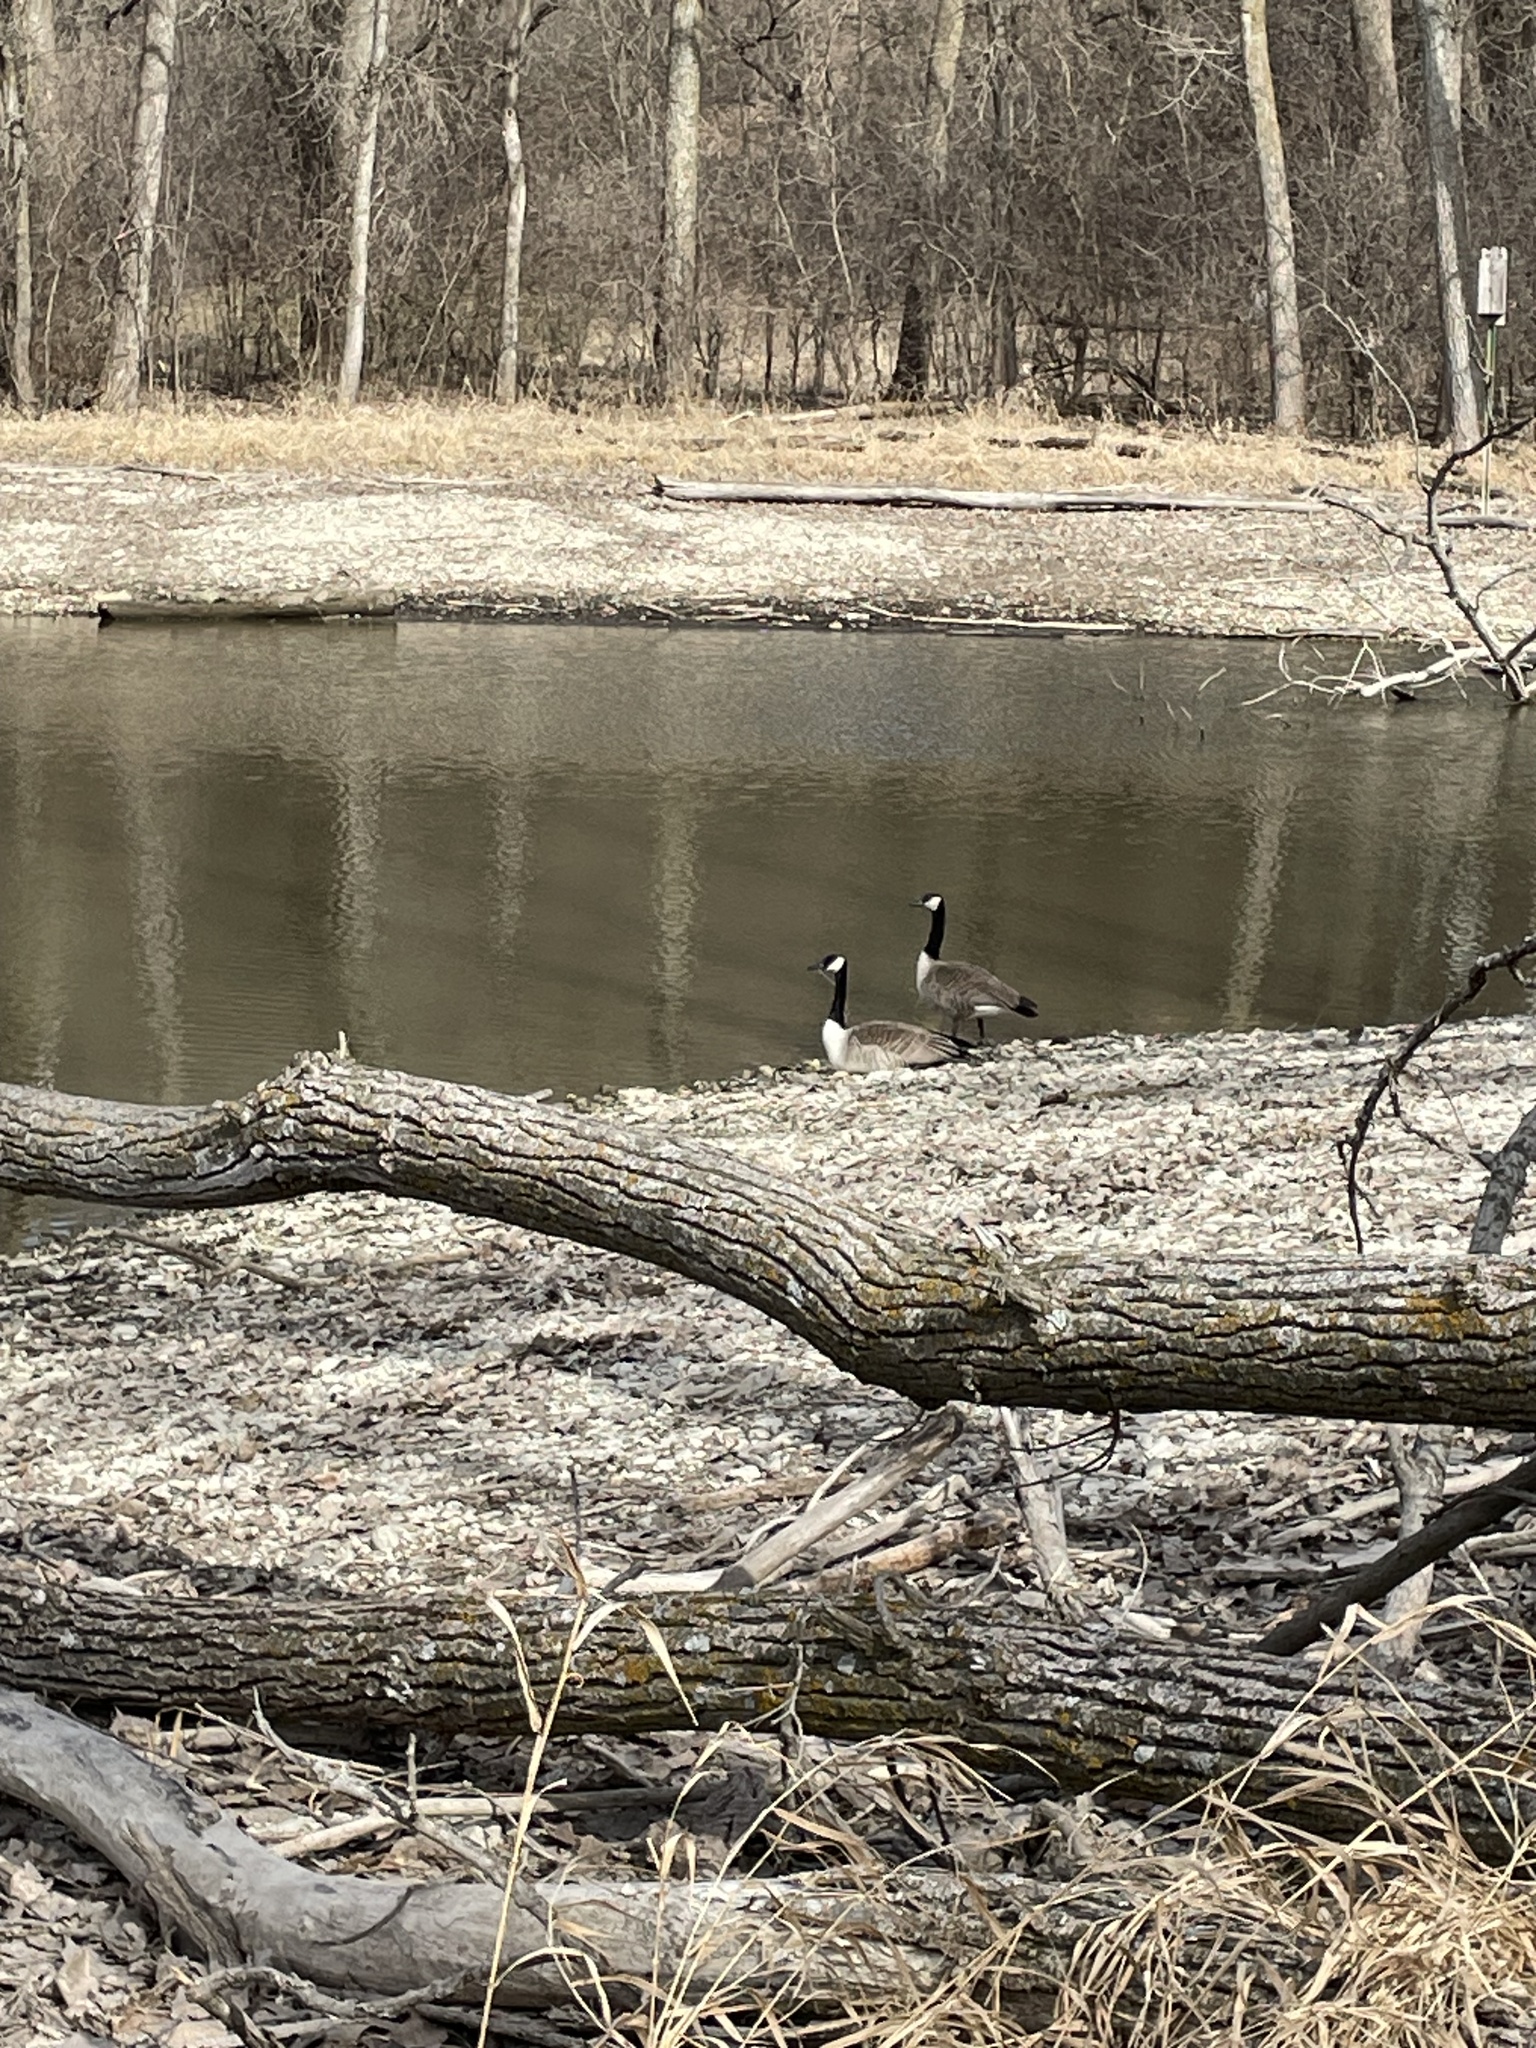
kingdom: Animalia
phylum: Chordata
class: Aves
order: Anseriformes
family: Anatidae
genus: Branta
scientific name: Branta canadensis
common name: Canada goose
